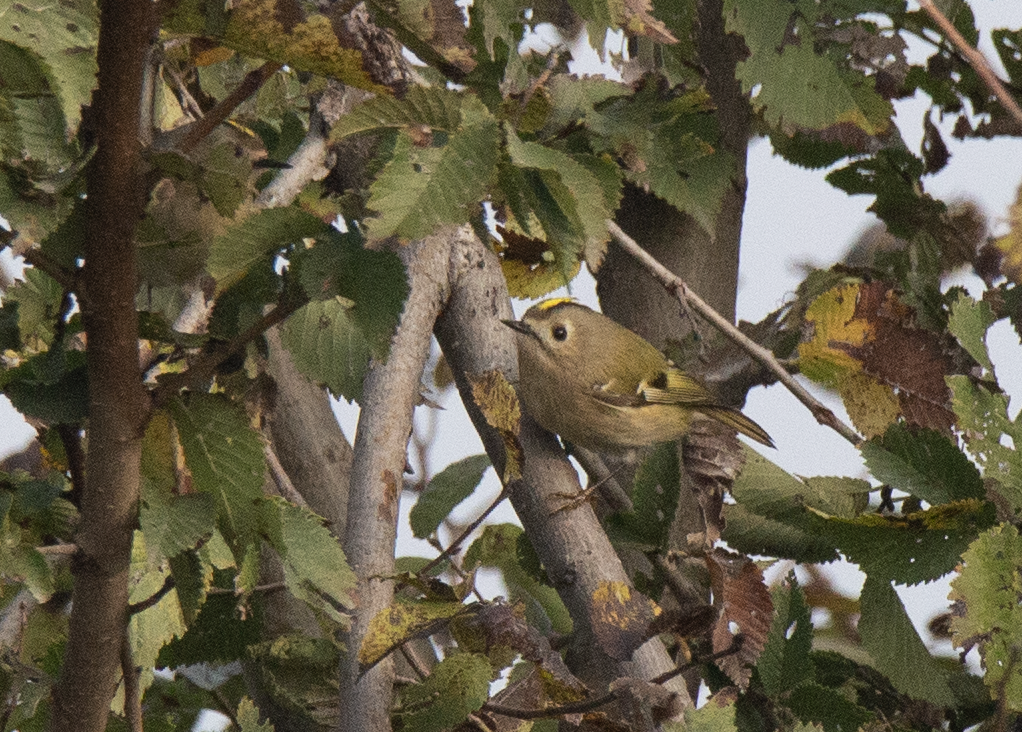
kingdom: Animalia
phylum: Chordata
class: Aves
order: Passeriformes
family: Regulidae
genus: Regulus
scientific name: Regulus regulus
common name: Goldcrest
